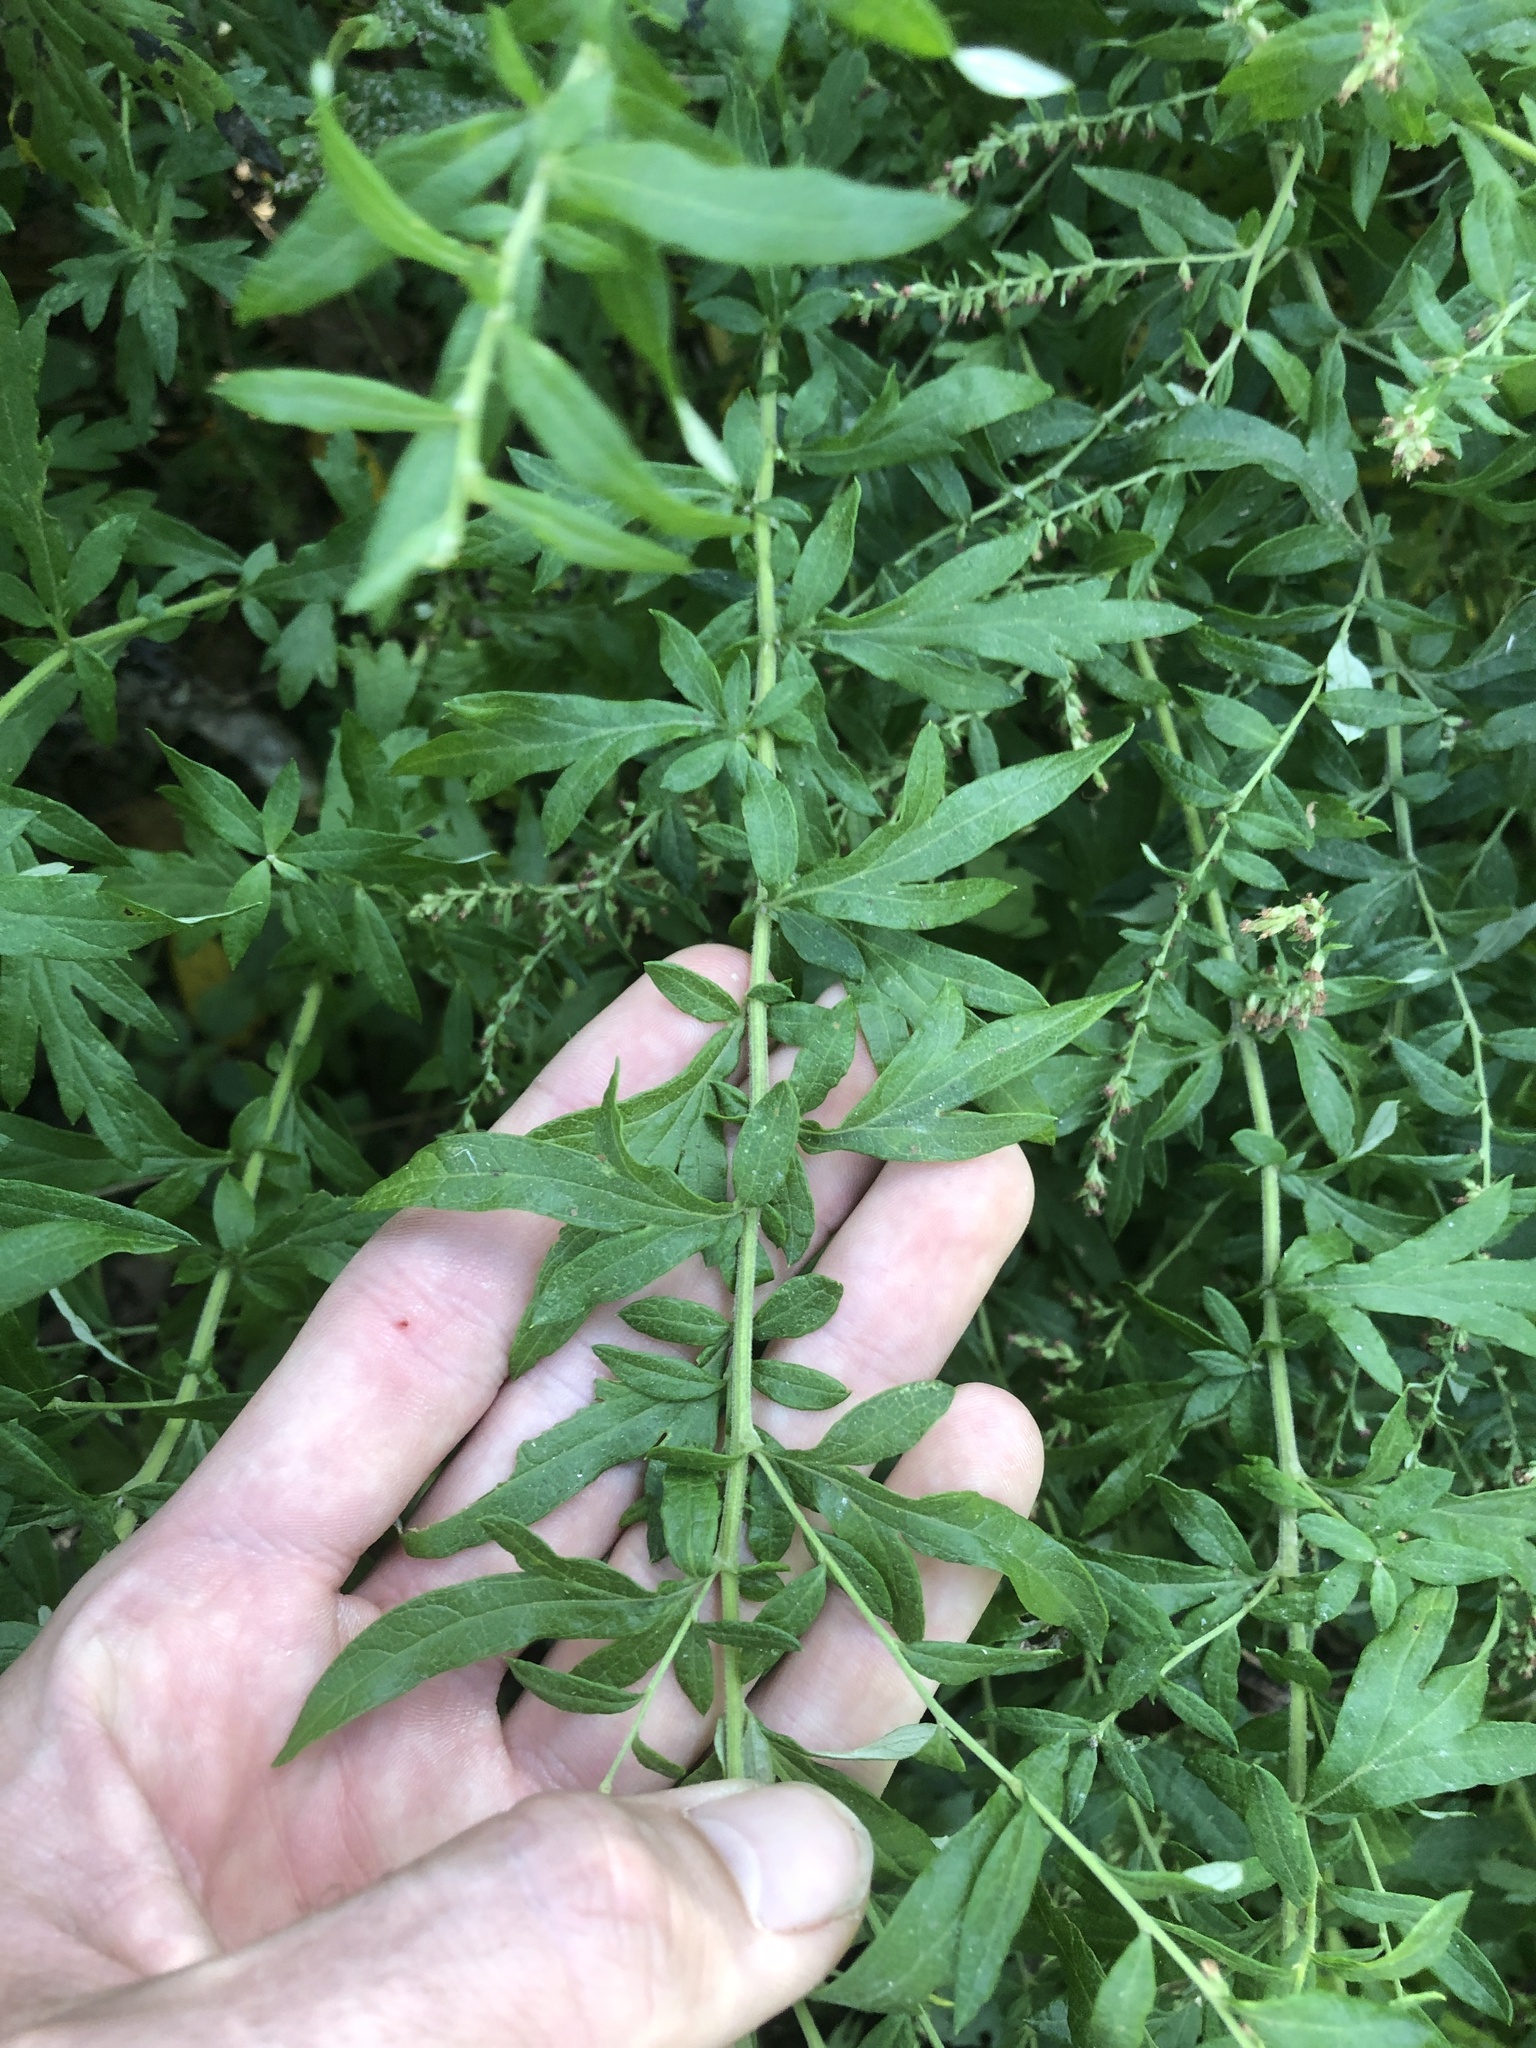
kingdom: Plantae
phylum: Tracheophyta
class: Magnoliopsida
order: Asterales
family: Asteraceae
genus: Artemisia
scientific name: Artemisia vulgaris
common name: Mugwort
